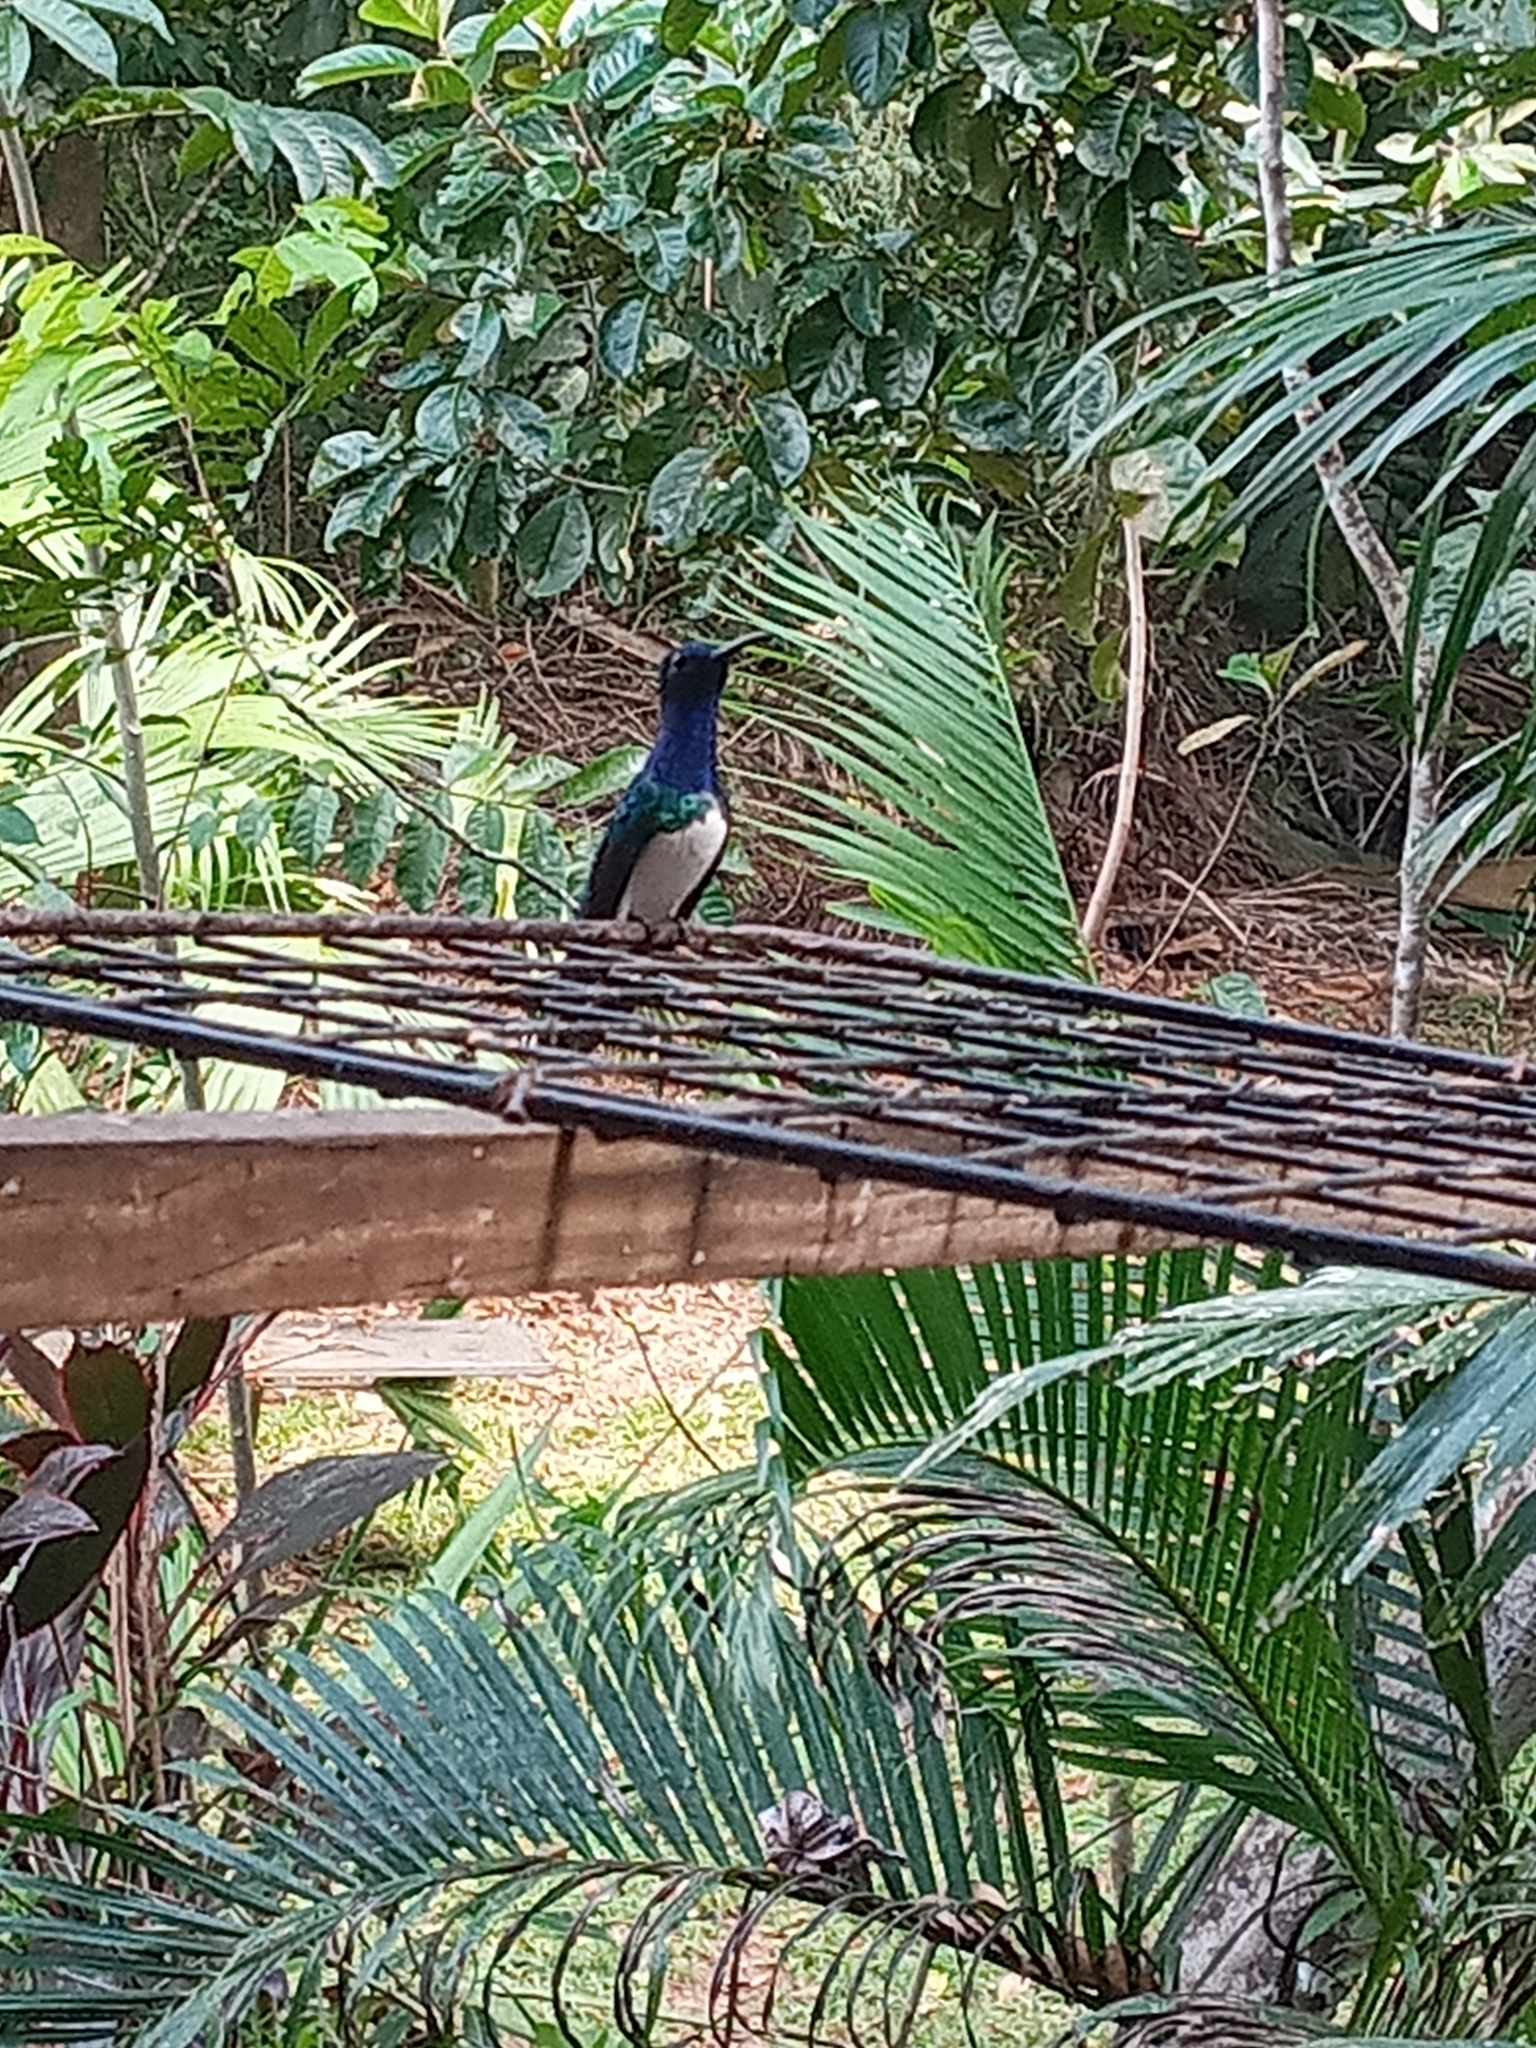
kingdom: Animalia
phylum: Chordata
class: Aves
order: Apodiformes
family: Trochilidae
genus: Florisuga
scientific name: Florisuga mellivora
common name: White-necked jacobin
